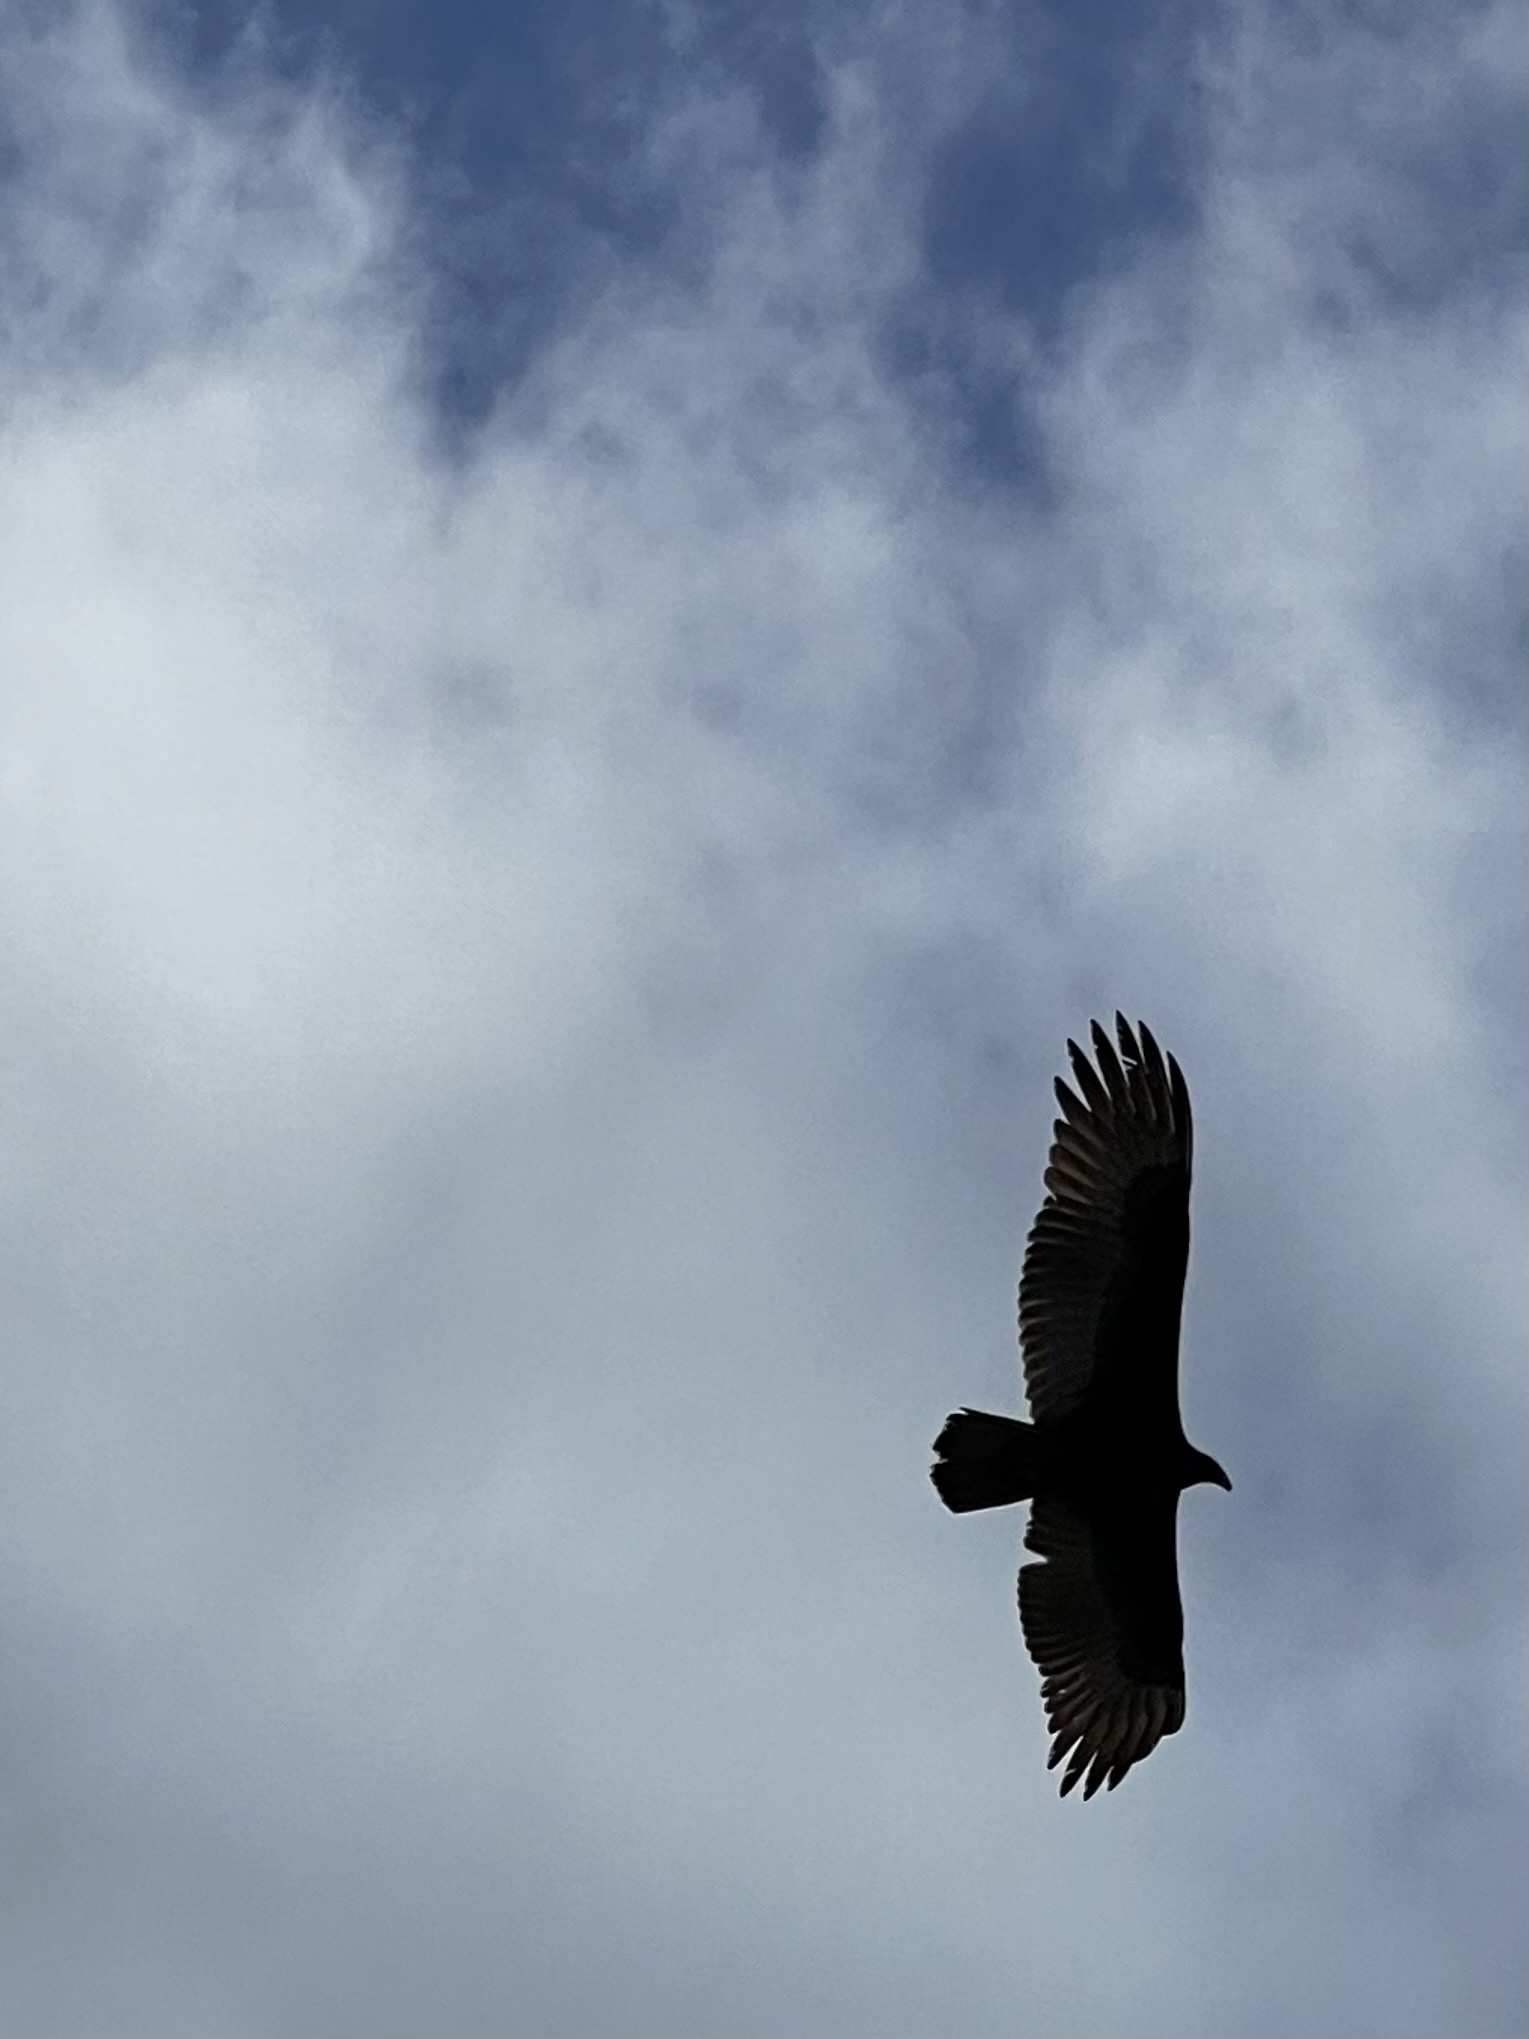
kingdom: Animalia
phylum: Chordata
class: Aves
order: Accipitriformes
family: Cathartidae
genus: Cathartes
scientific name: Cathartes aura
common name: Turkey vulture
